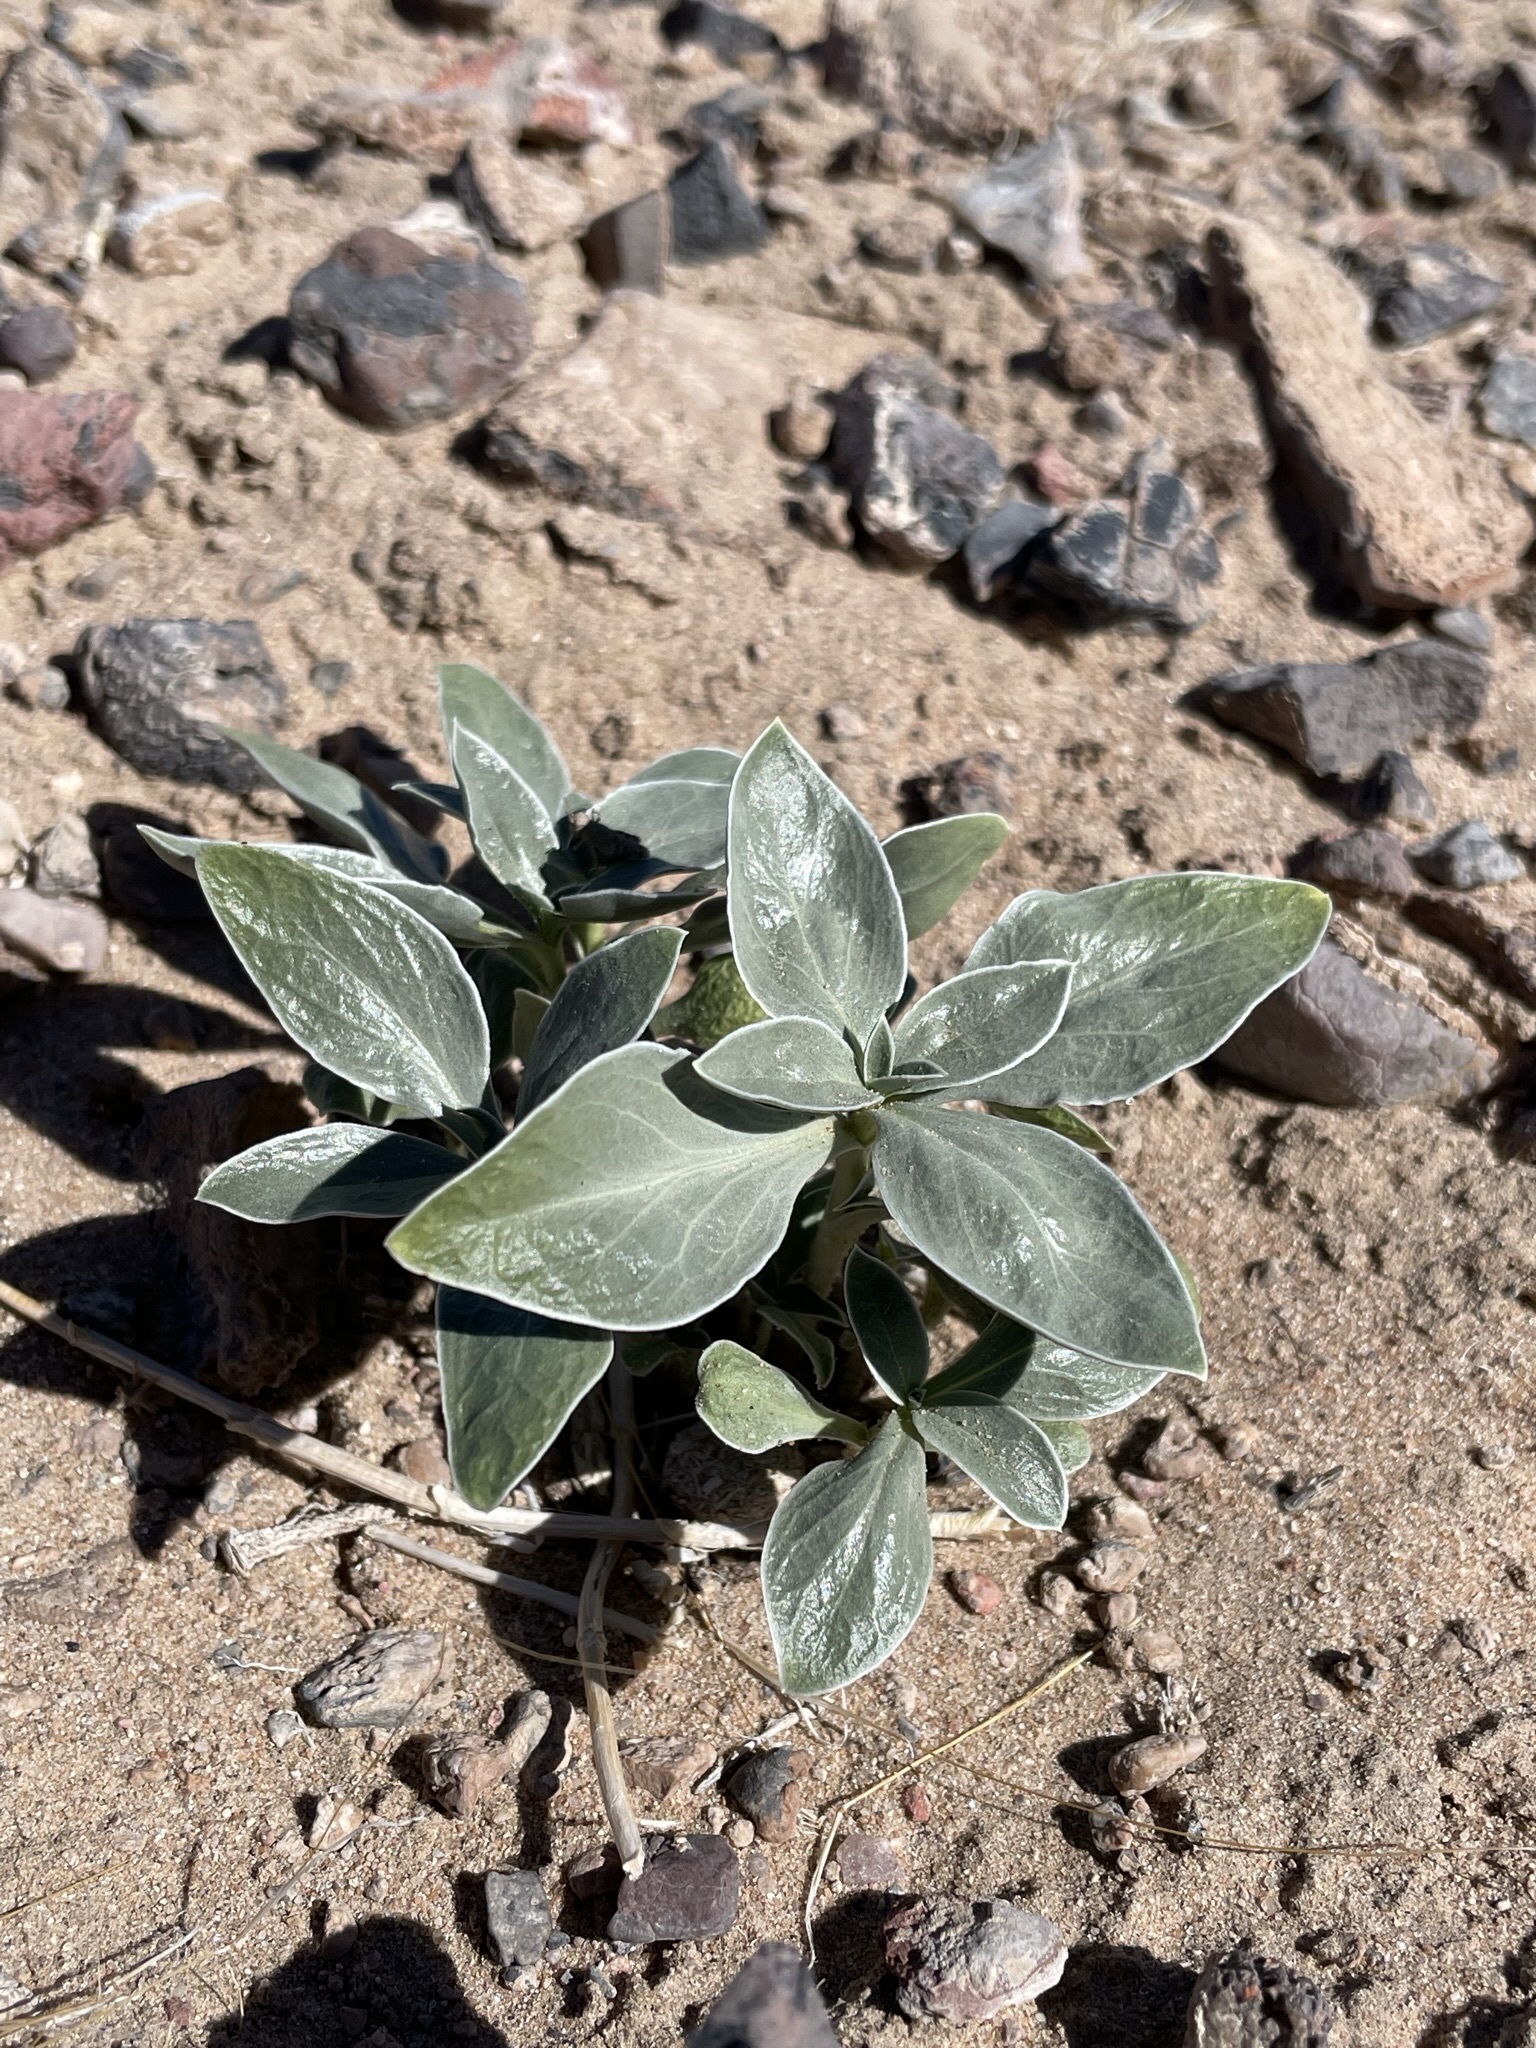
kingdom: Plantae
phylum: Tracheophyta
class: Magnoliopsida
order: Lamiales
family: Plantaginaceae
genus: Penstemon
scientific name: Penstemon albomarginatus
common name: White-margin beardtongue
